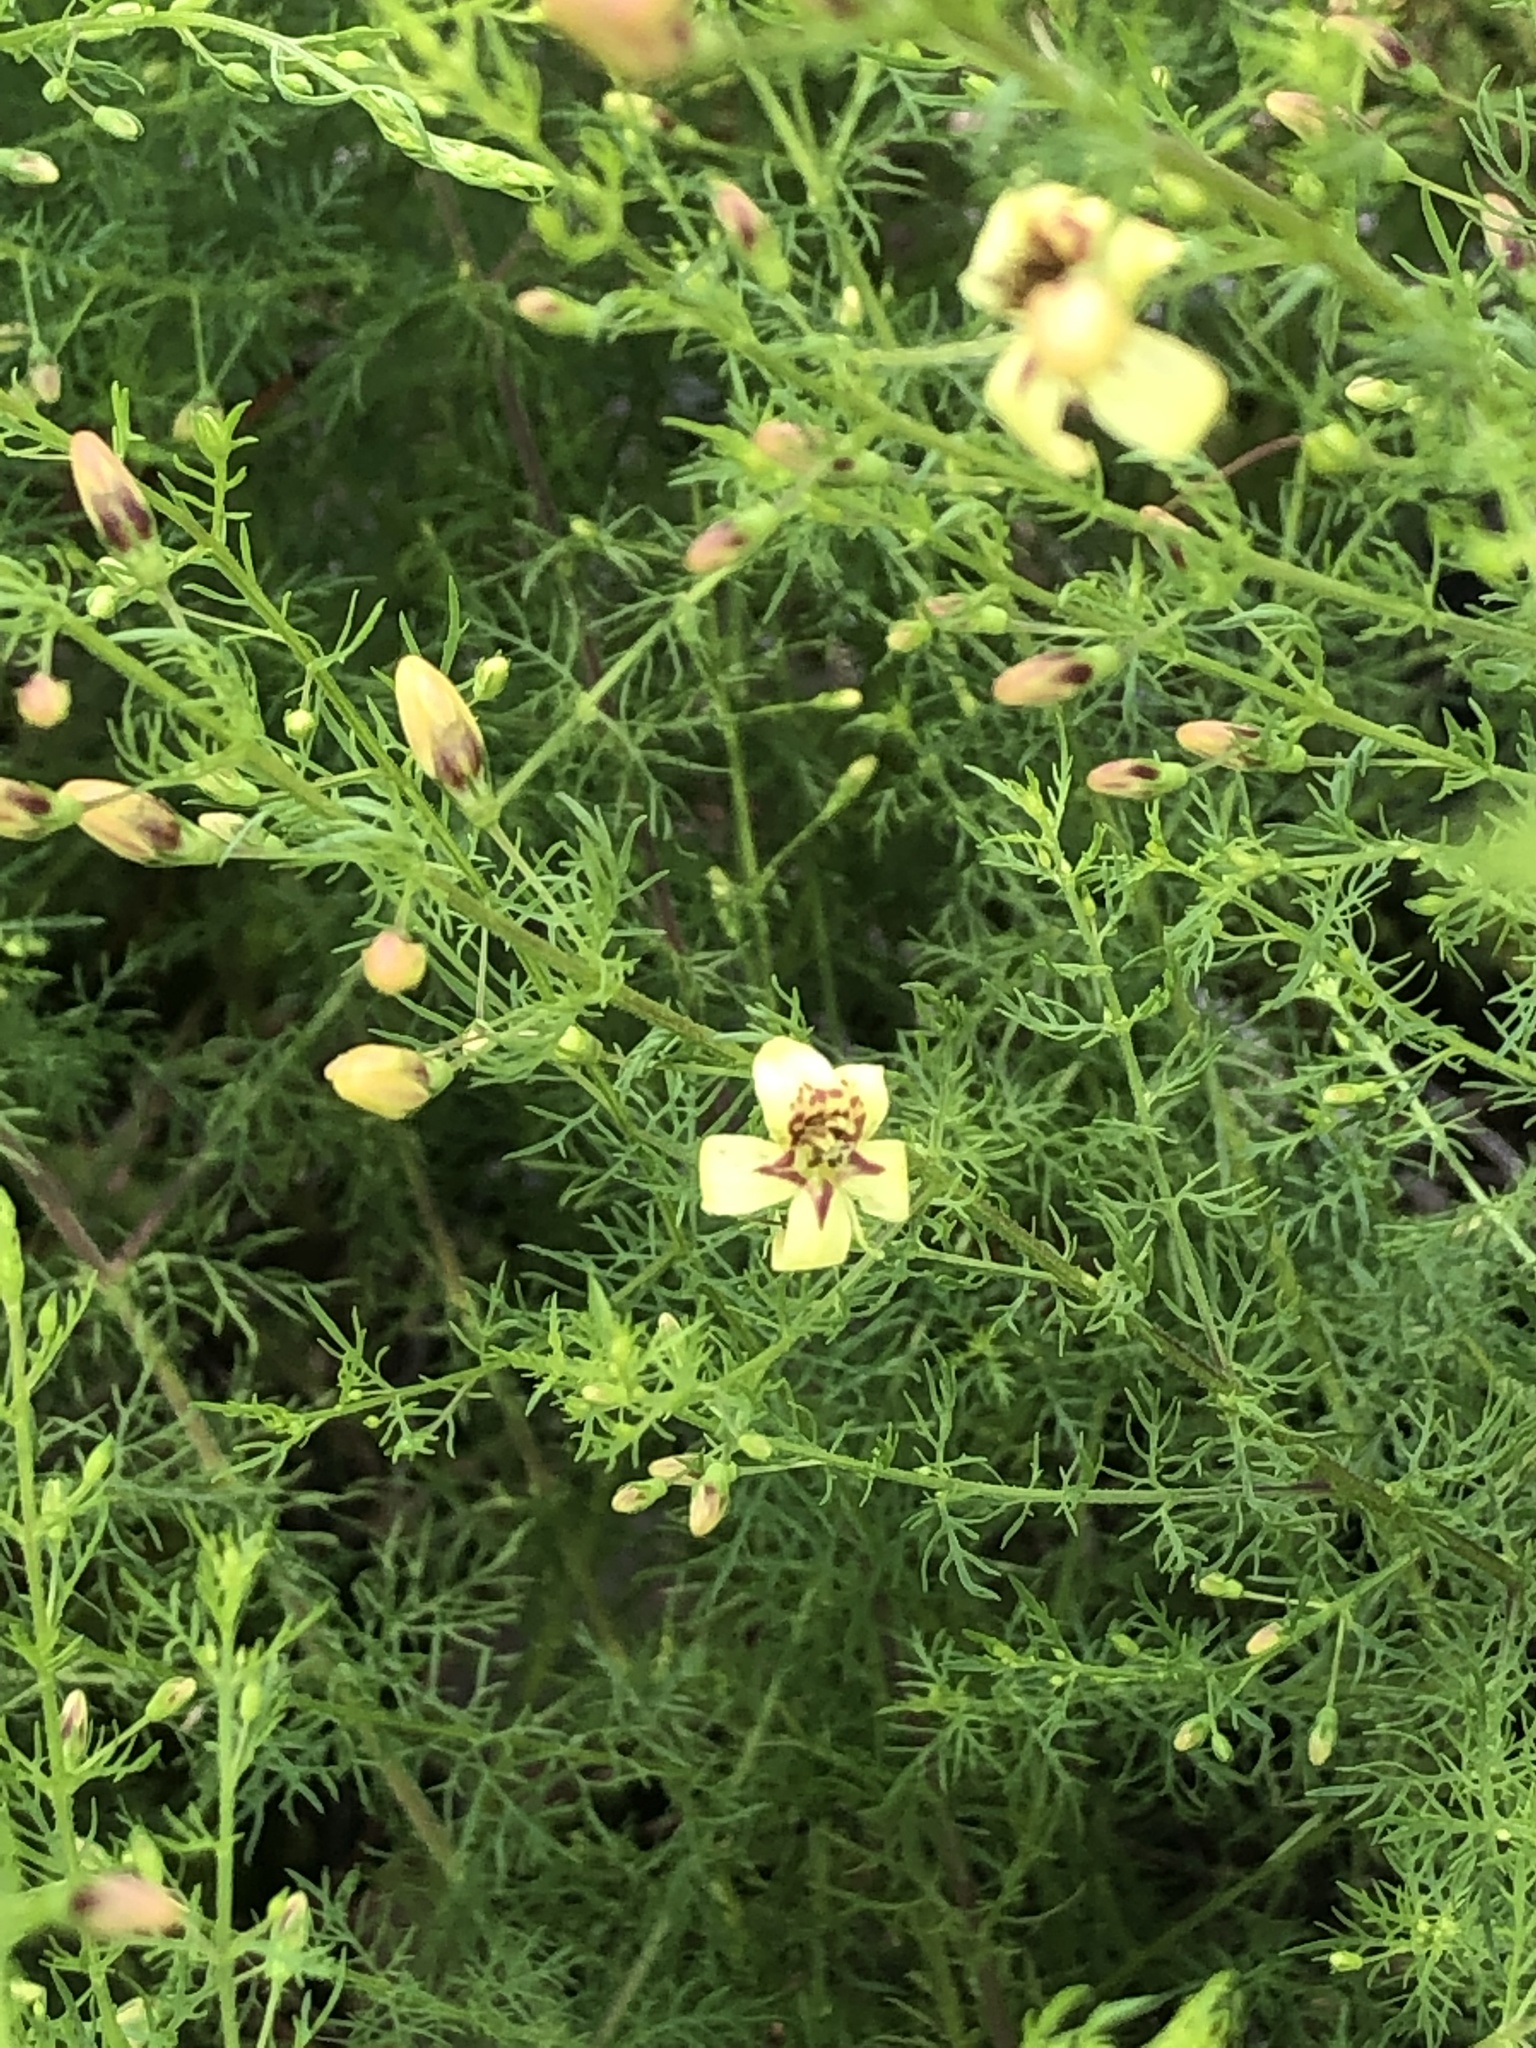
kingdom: Plantae
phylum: Tracheophyta
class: Magnoliopsida
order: Lamiales
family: Orobanchaceae
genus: Seymeria
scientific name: Seymeria cassioides
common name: Yaupon black-senna
